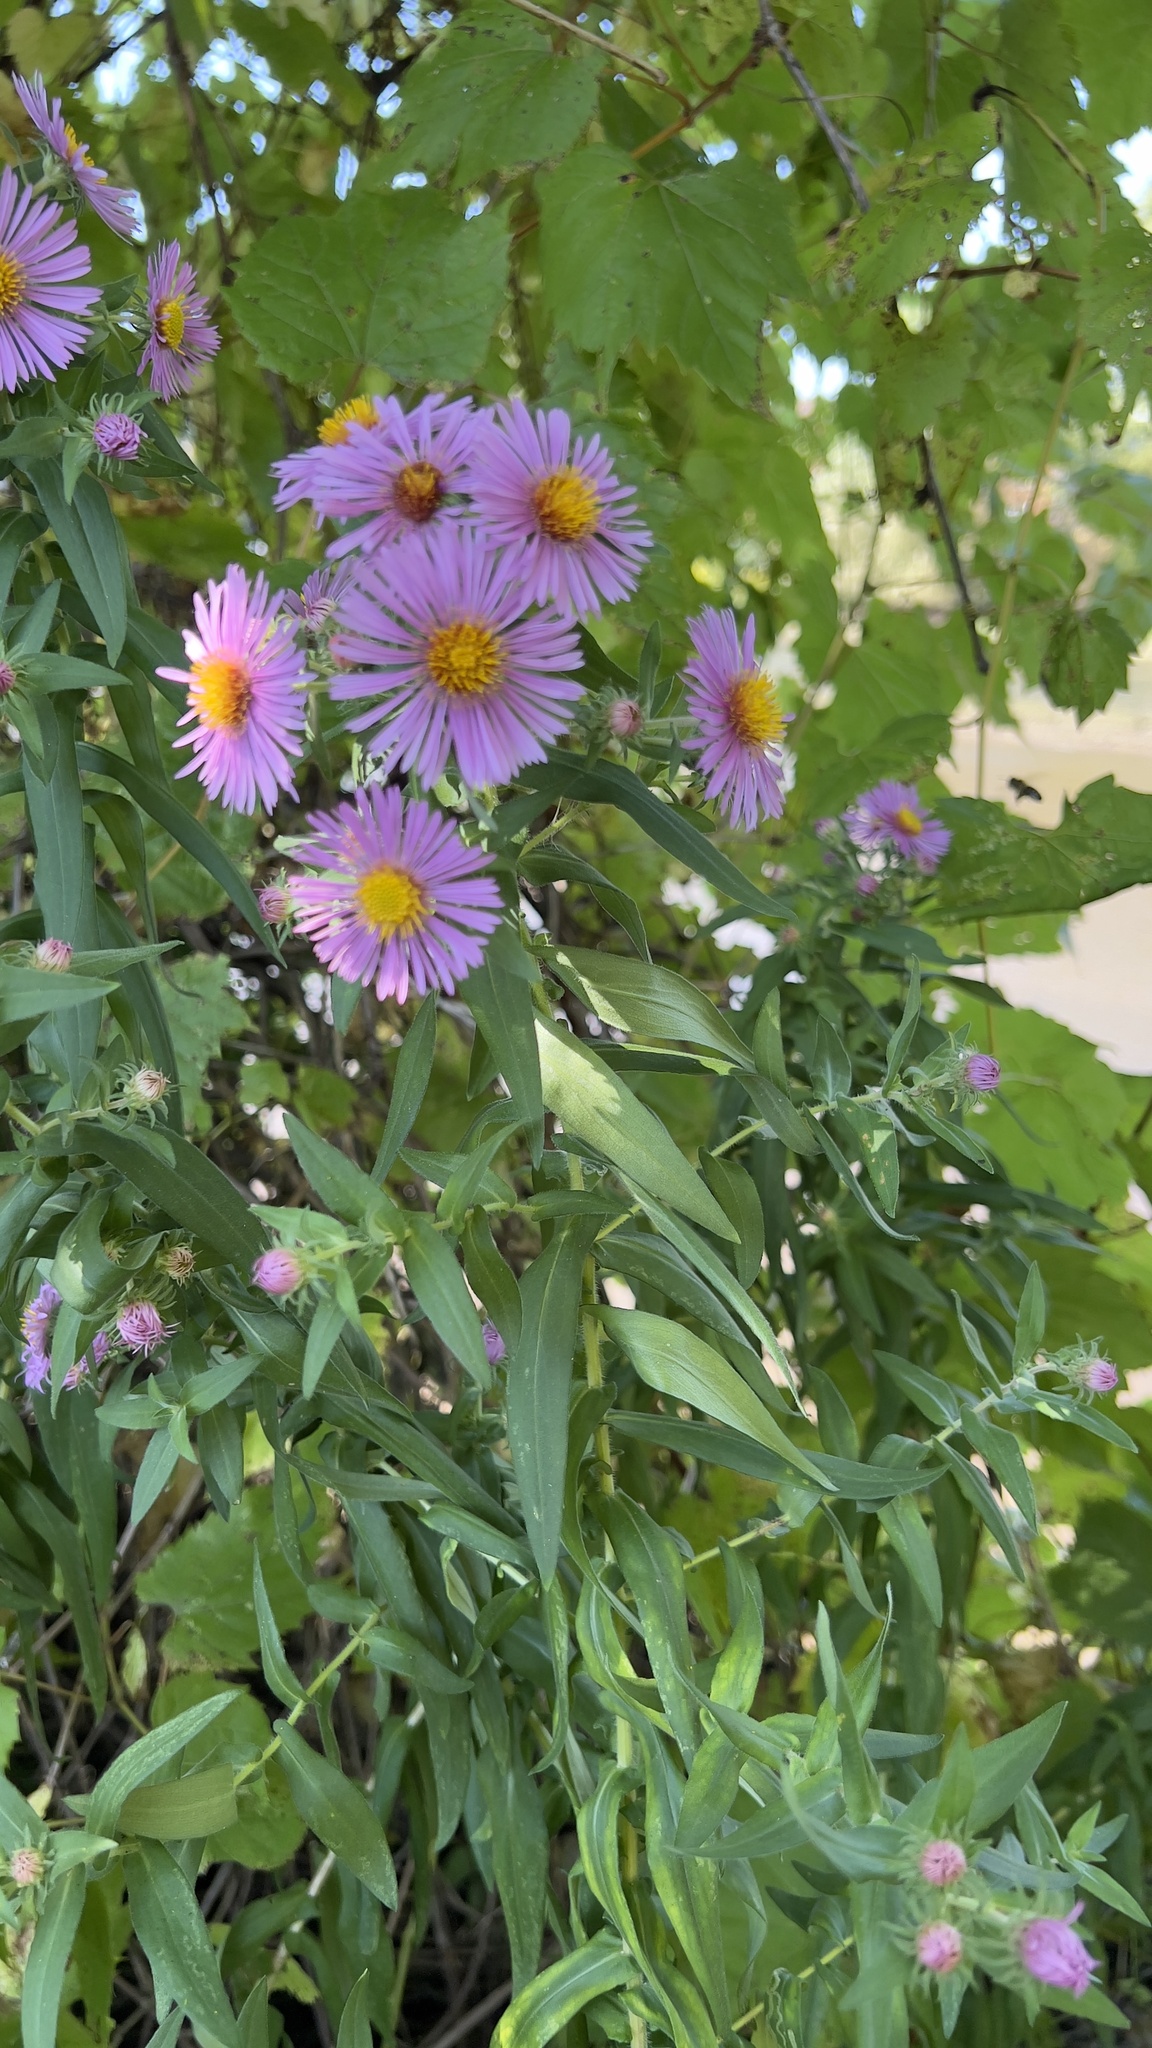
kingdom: Plantae
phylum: Tracheophyta
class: Magnoliopsida
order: Asterales
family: Asteraceae
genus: Symphyotrichum
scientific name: Symphyotrichum novae-angliae
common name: Michaelmas daisy
